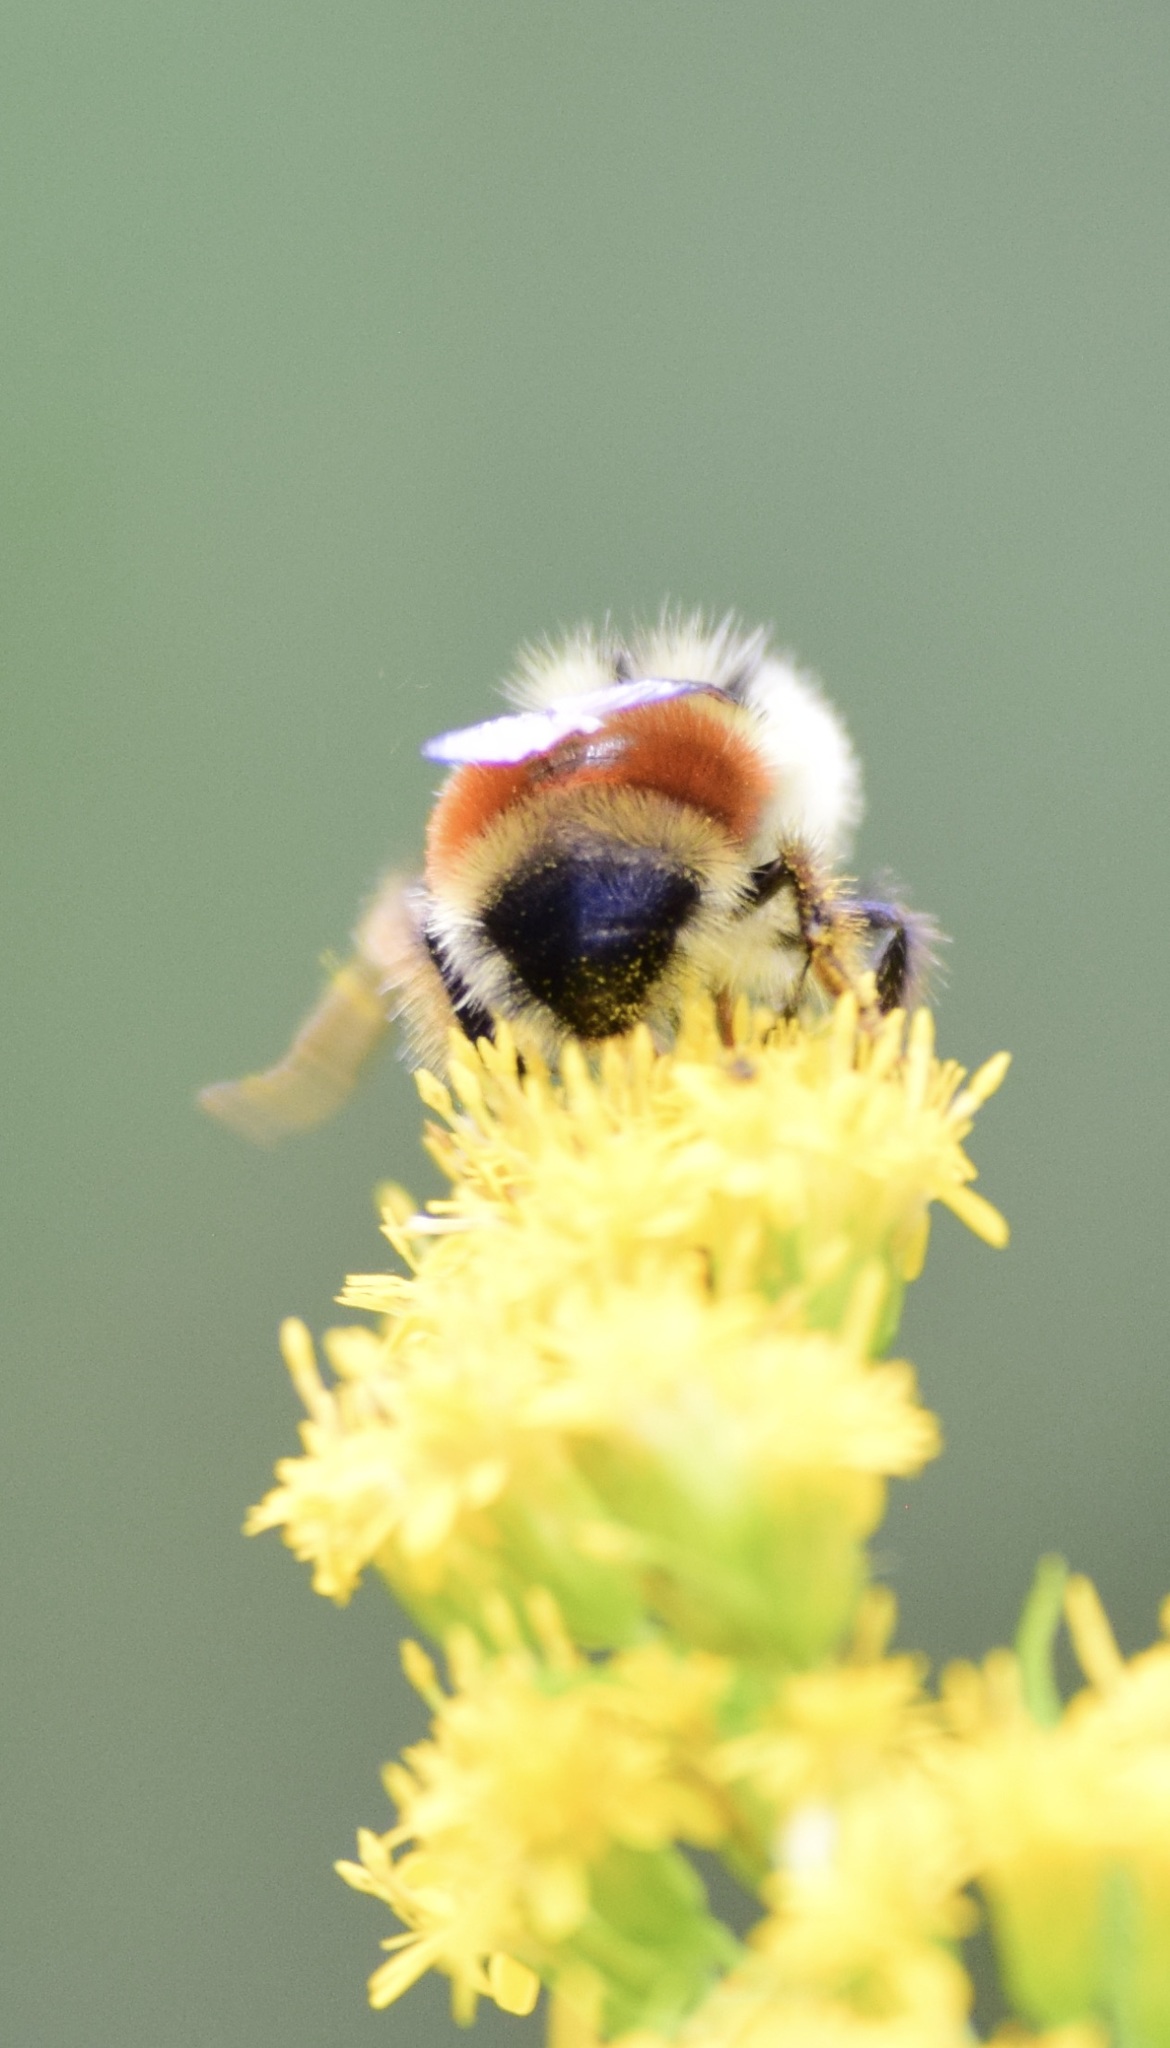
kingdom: Animalia
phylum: Arthropoda
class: Insecta
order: Hymenoptera
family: Apidae
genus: Bombus
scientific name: Bombus ternarius
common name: Tri-colored bumble bee
